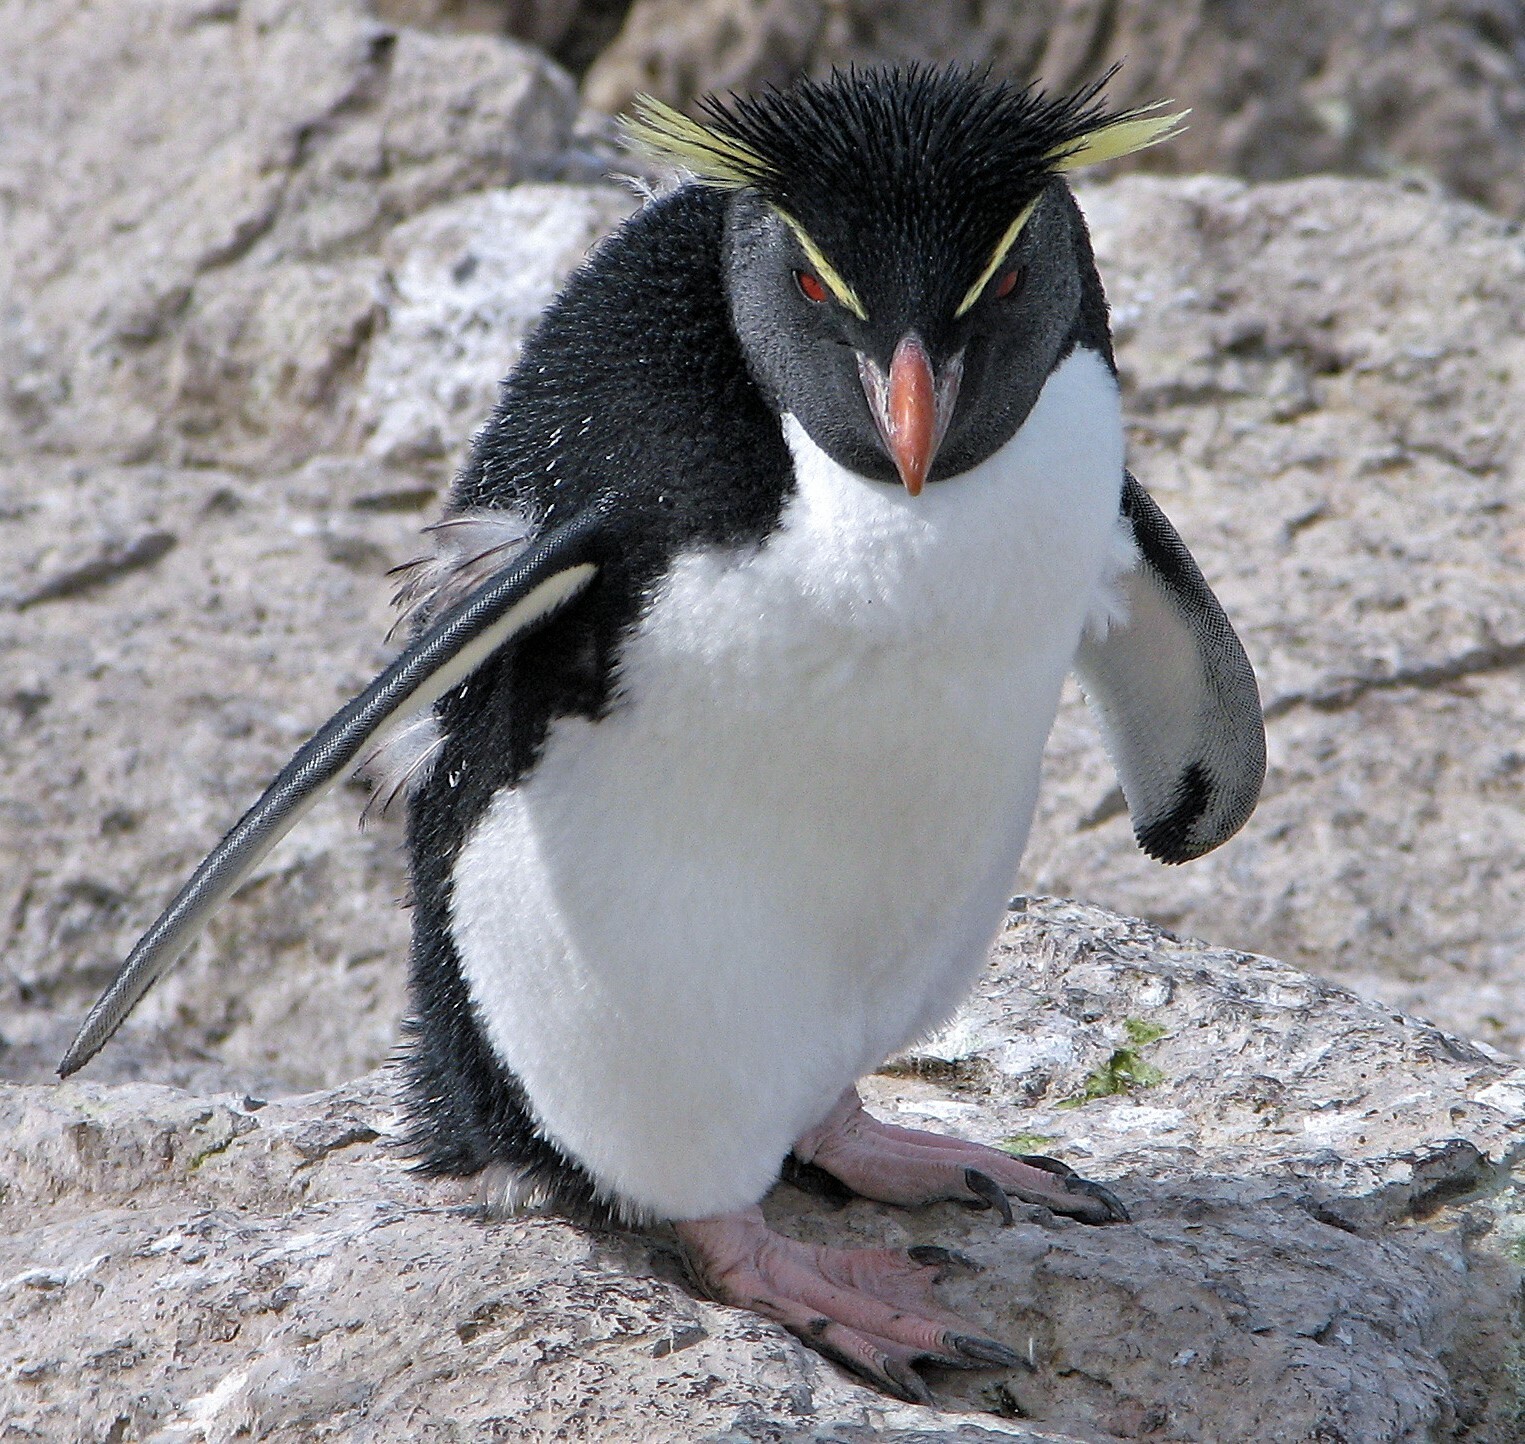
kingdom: Animalia
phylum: Chordata
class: Aves
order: Sphenisciformes
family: Spheniscidae
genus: Eudyptes
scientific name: Eudyptes chrysocome
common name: Southern rockhopper penguin
